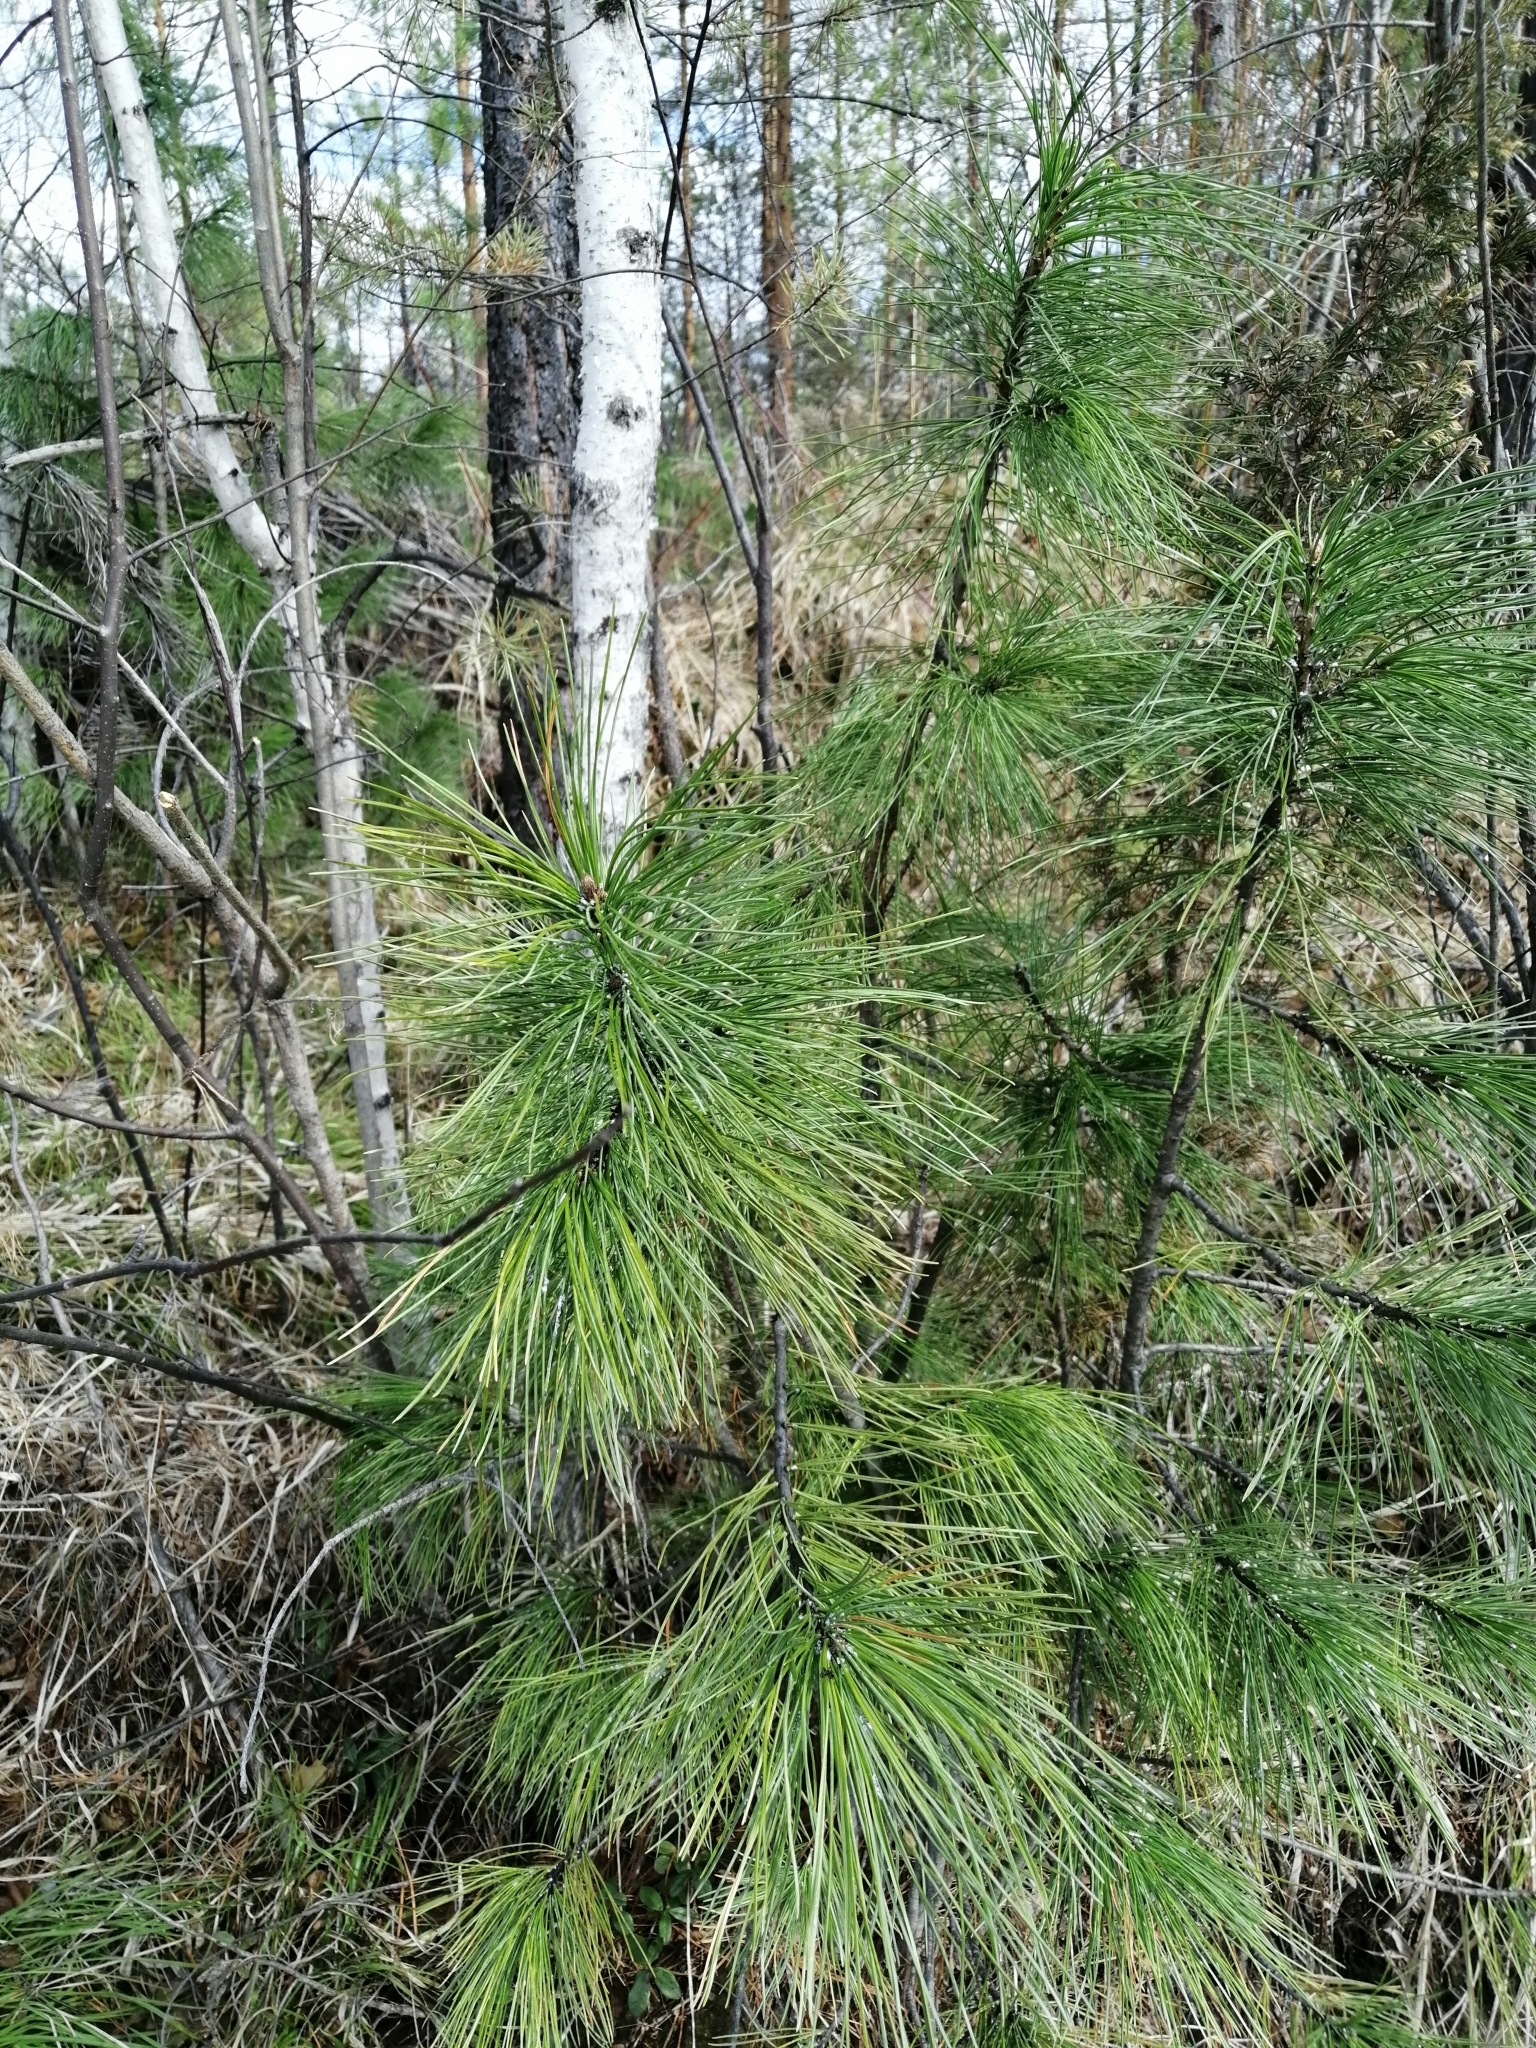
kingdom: Plantae
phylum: Tracheophyta
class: Pinopsida
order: Pinales
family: Pinaceae
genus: Pinus
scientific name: Pinus sibirica
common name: Siberian pine
